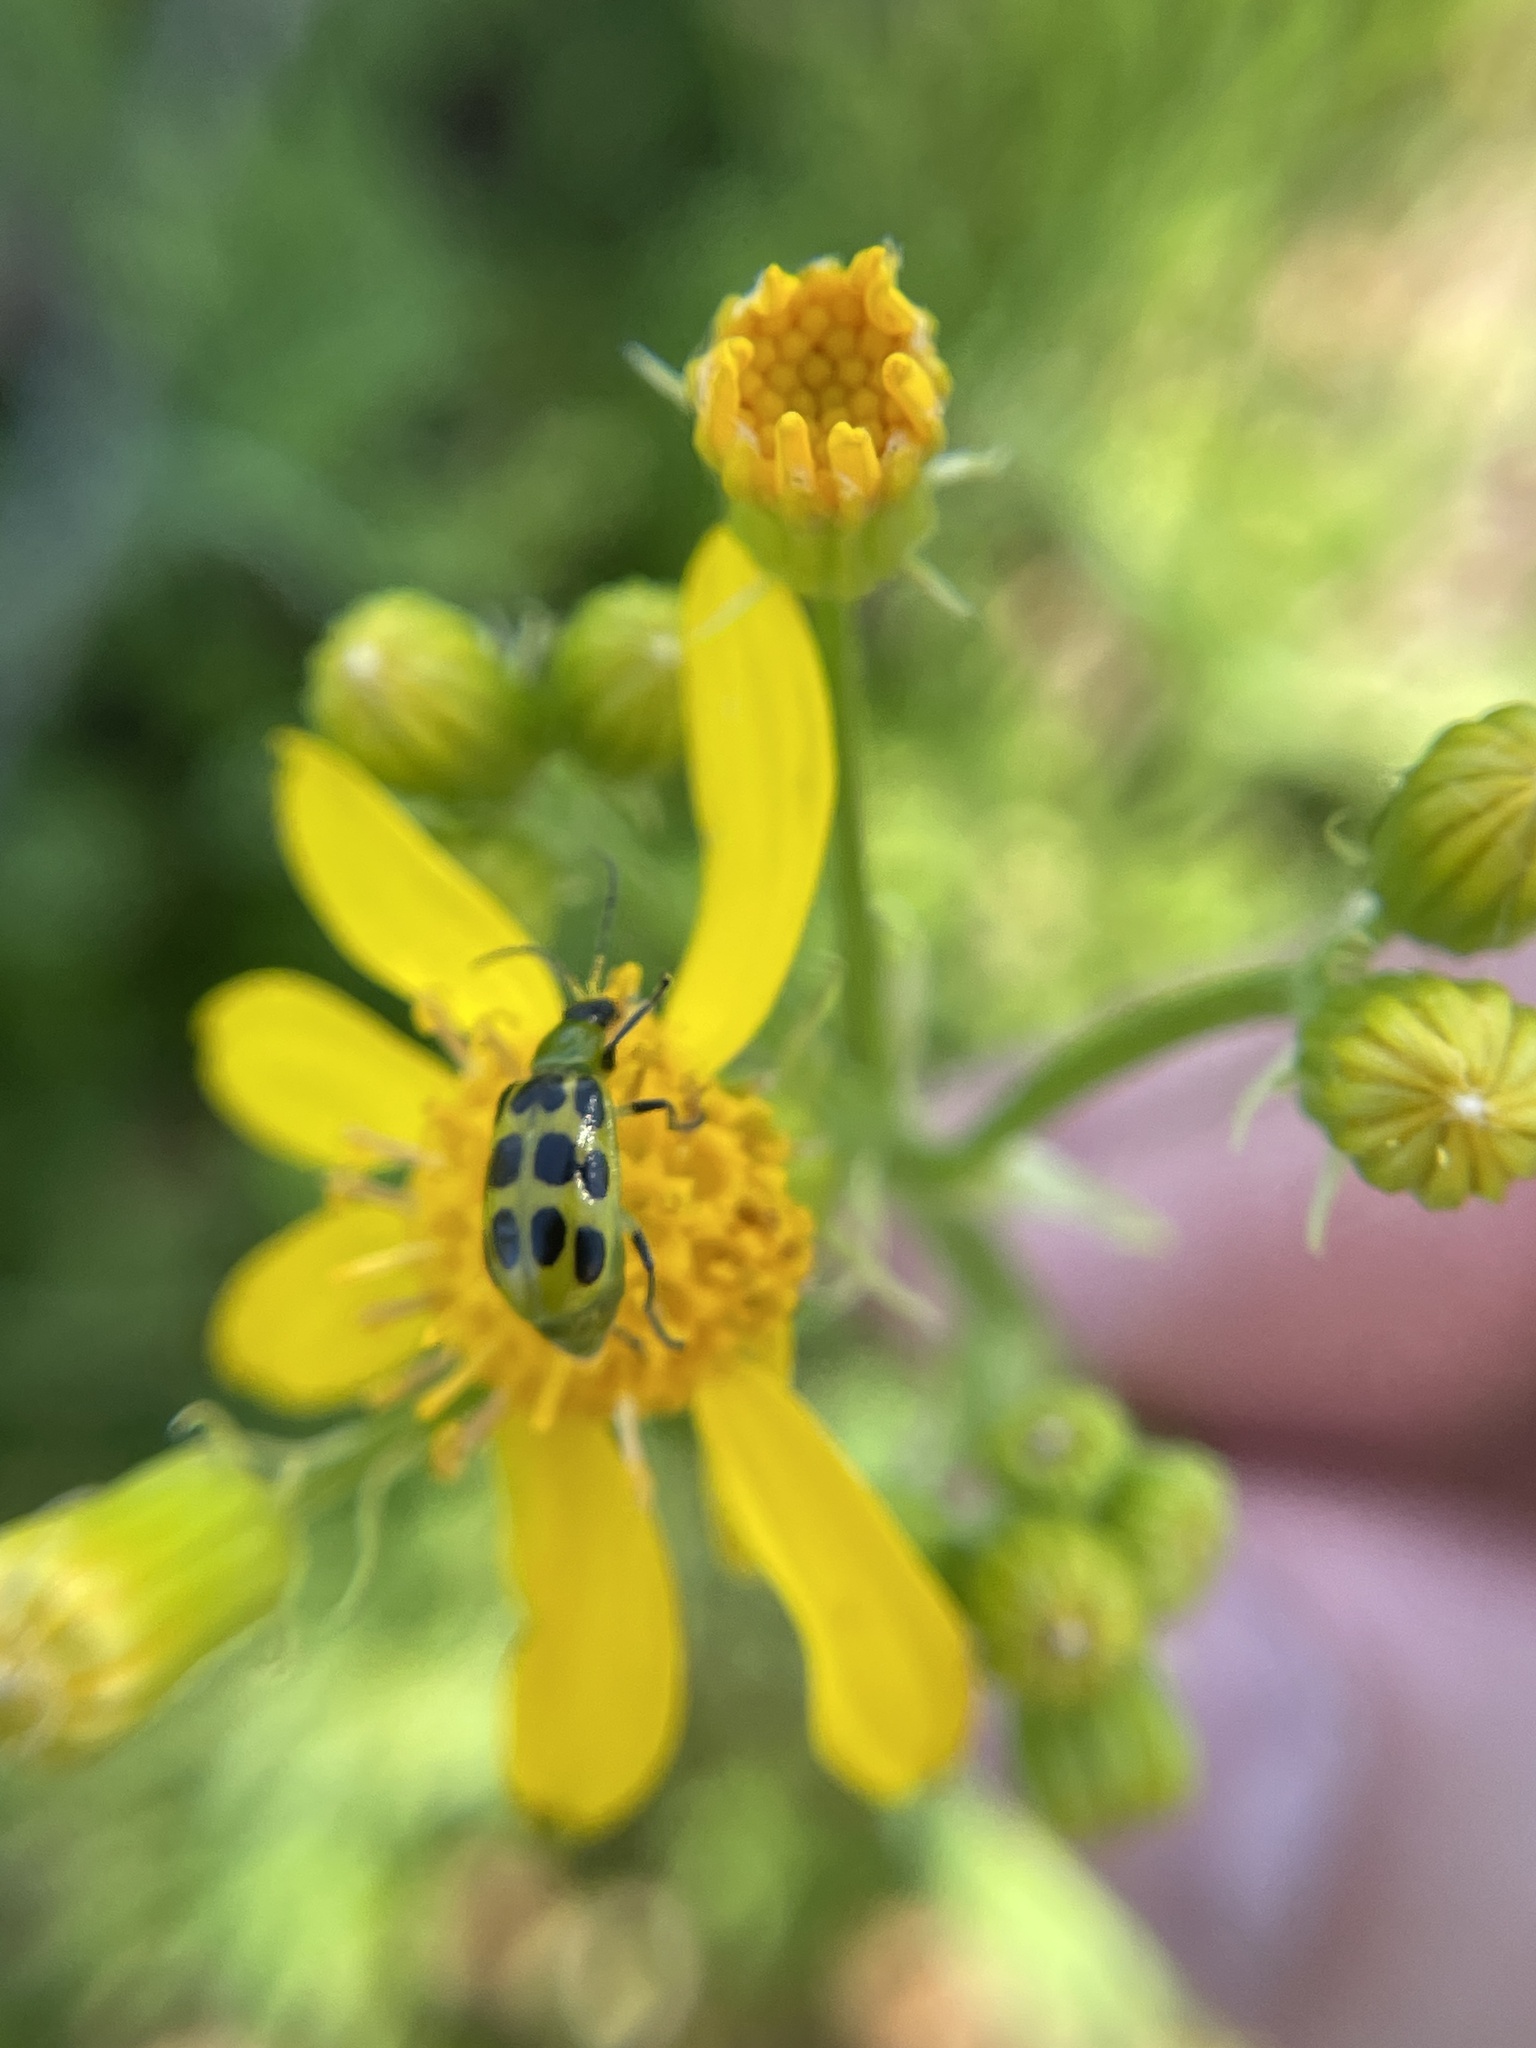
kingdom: Animalia
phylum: Arthropoda
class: Insecta
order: Coleoptera
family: Chrysomelidae
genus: Diabrotica
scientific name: Diabrotica undecimpunctata
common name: Spotted cucumber beetle
